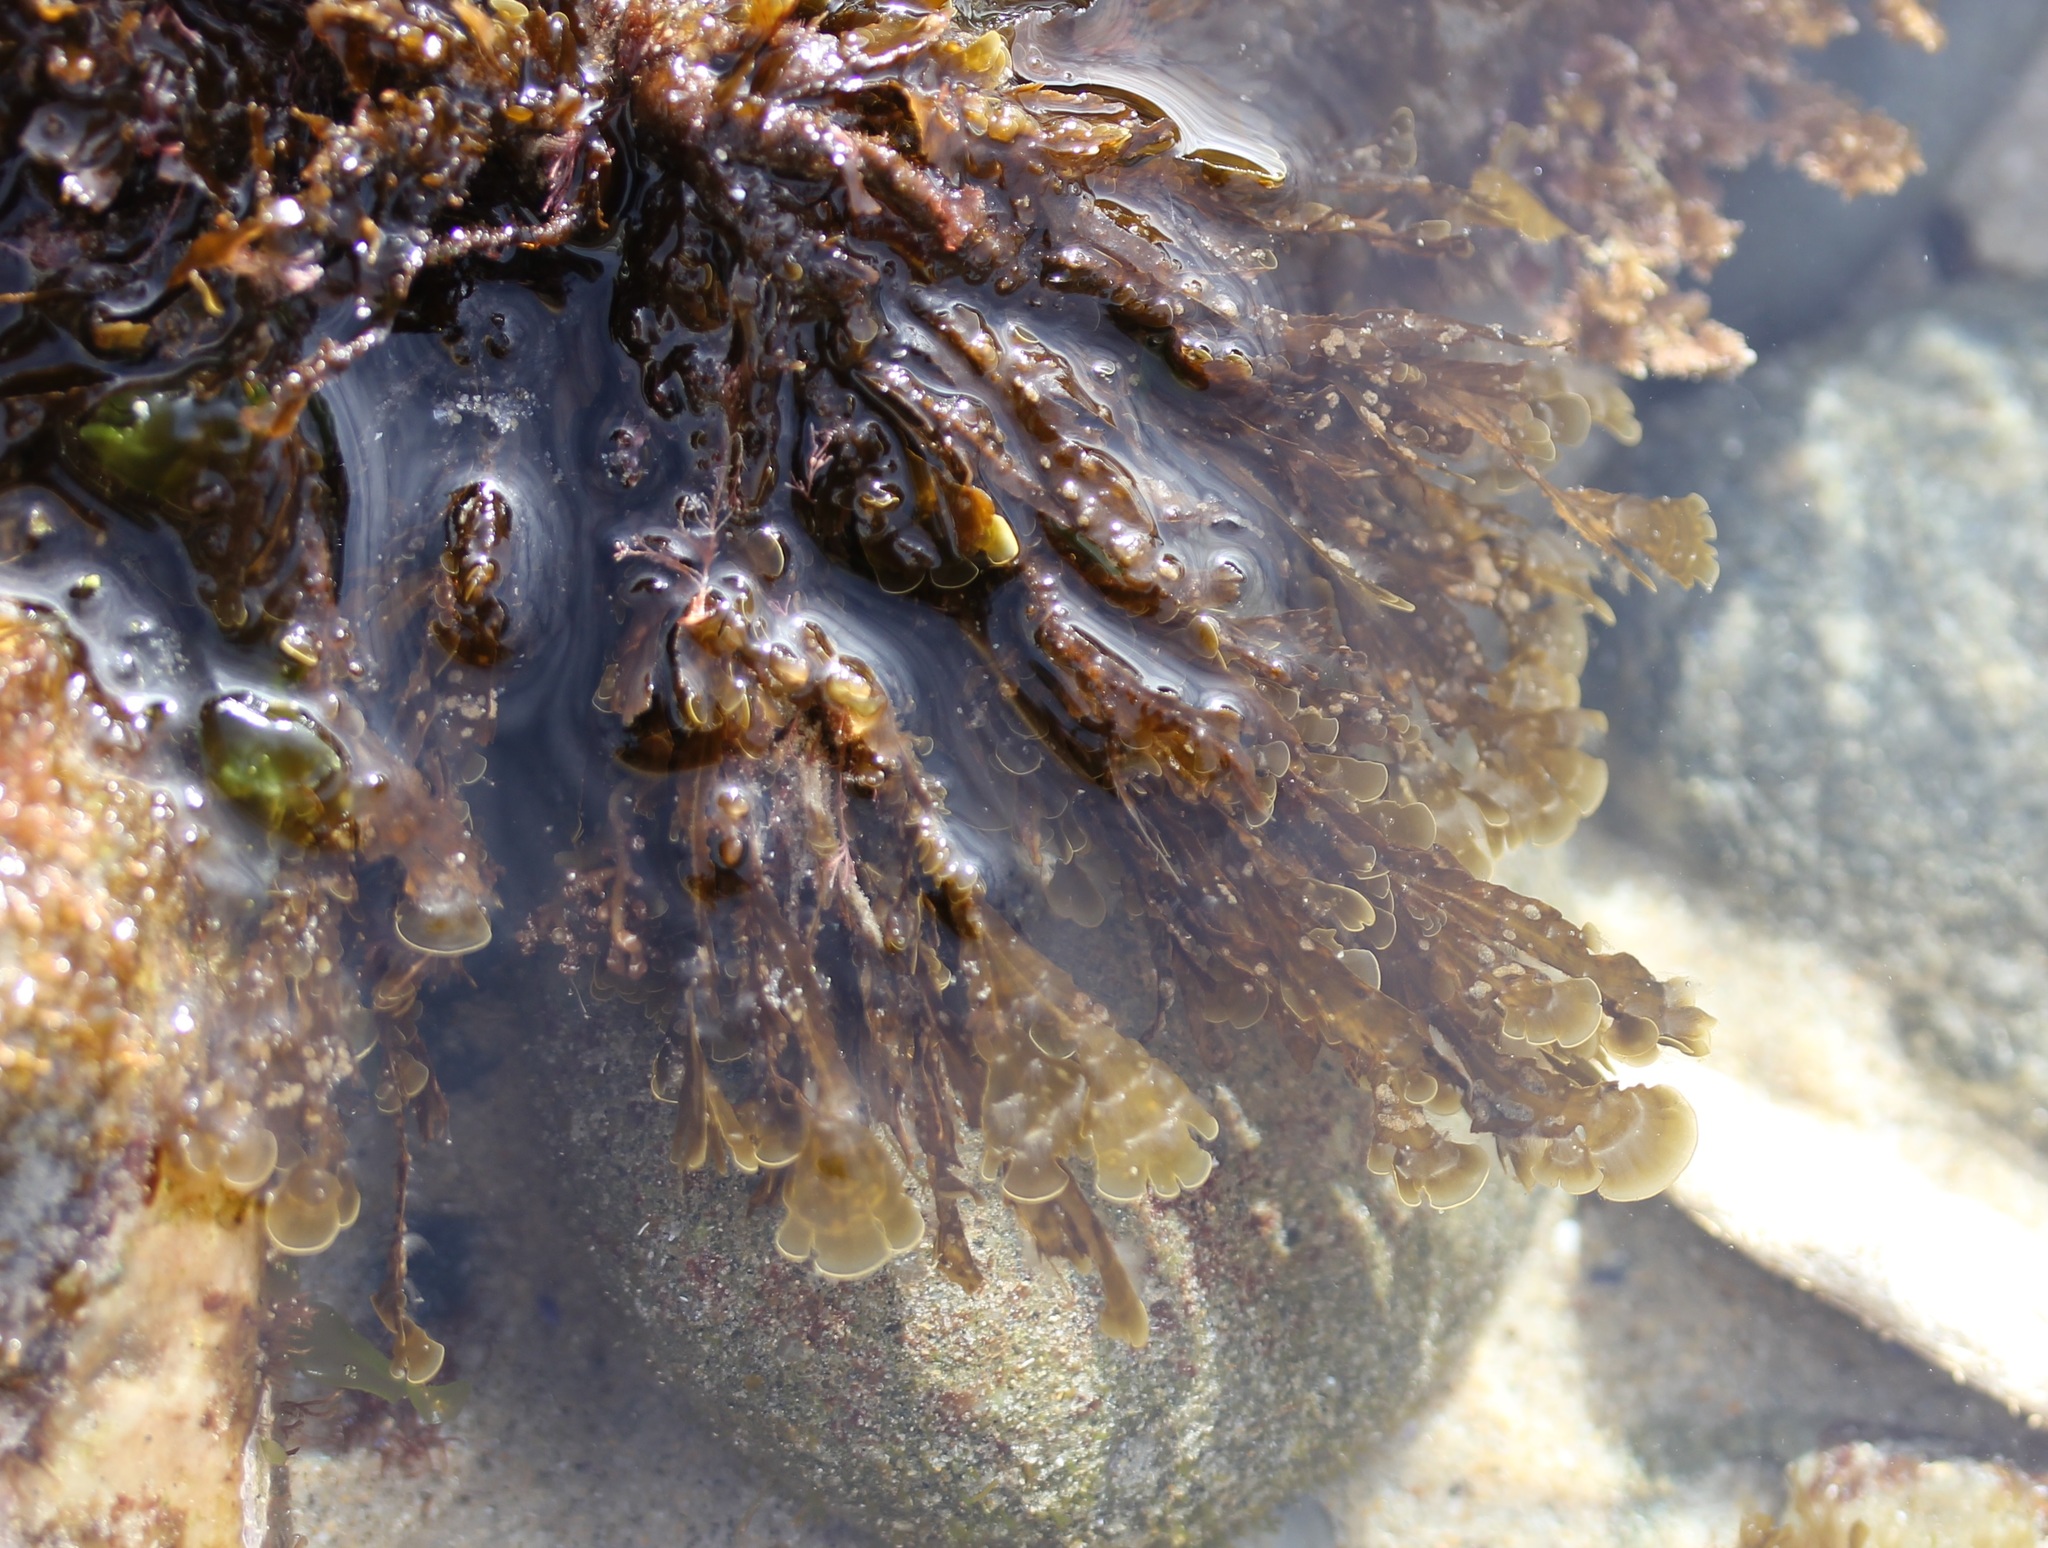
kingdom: Chromista
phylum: Ochrophyta
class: Phaeophyceae
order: Dictyotales
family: Dictyotaceae
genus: Zonaria
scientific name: Zonaria farlowii
